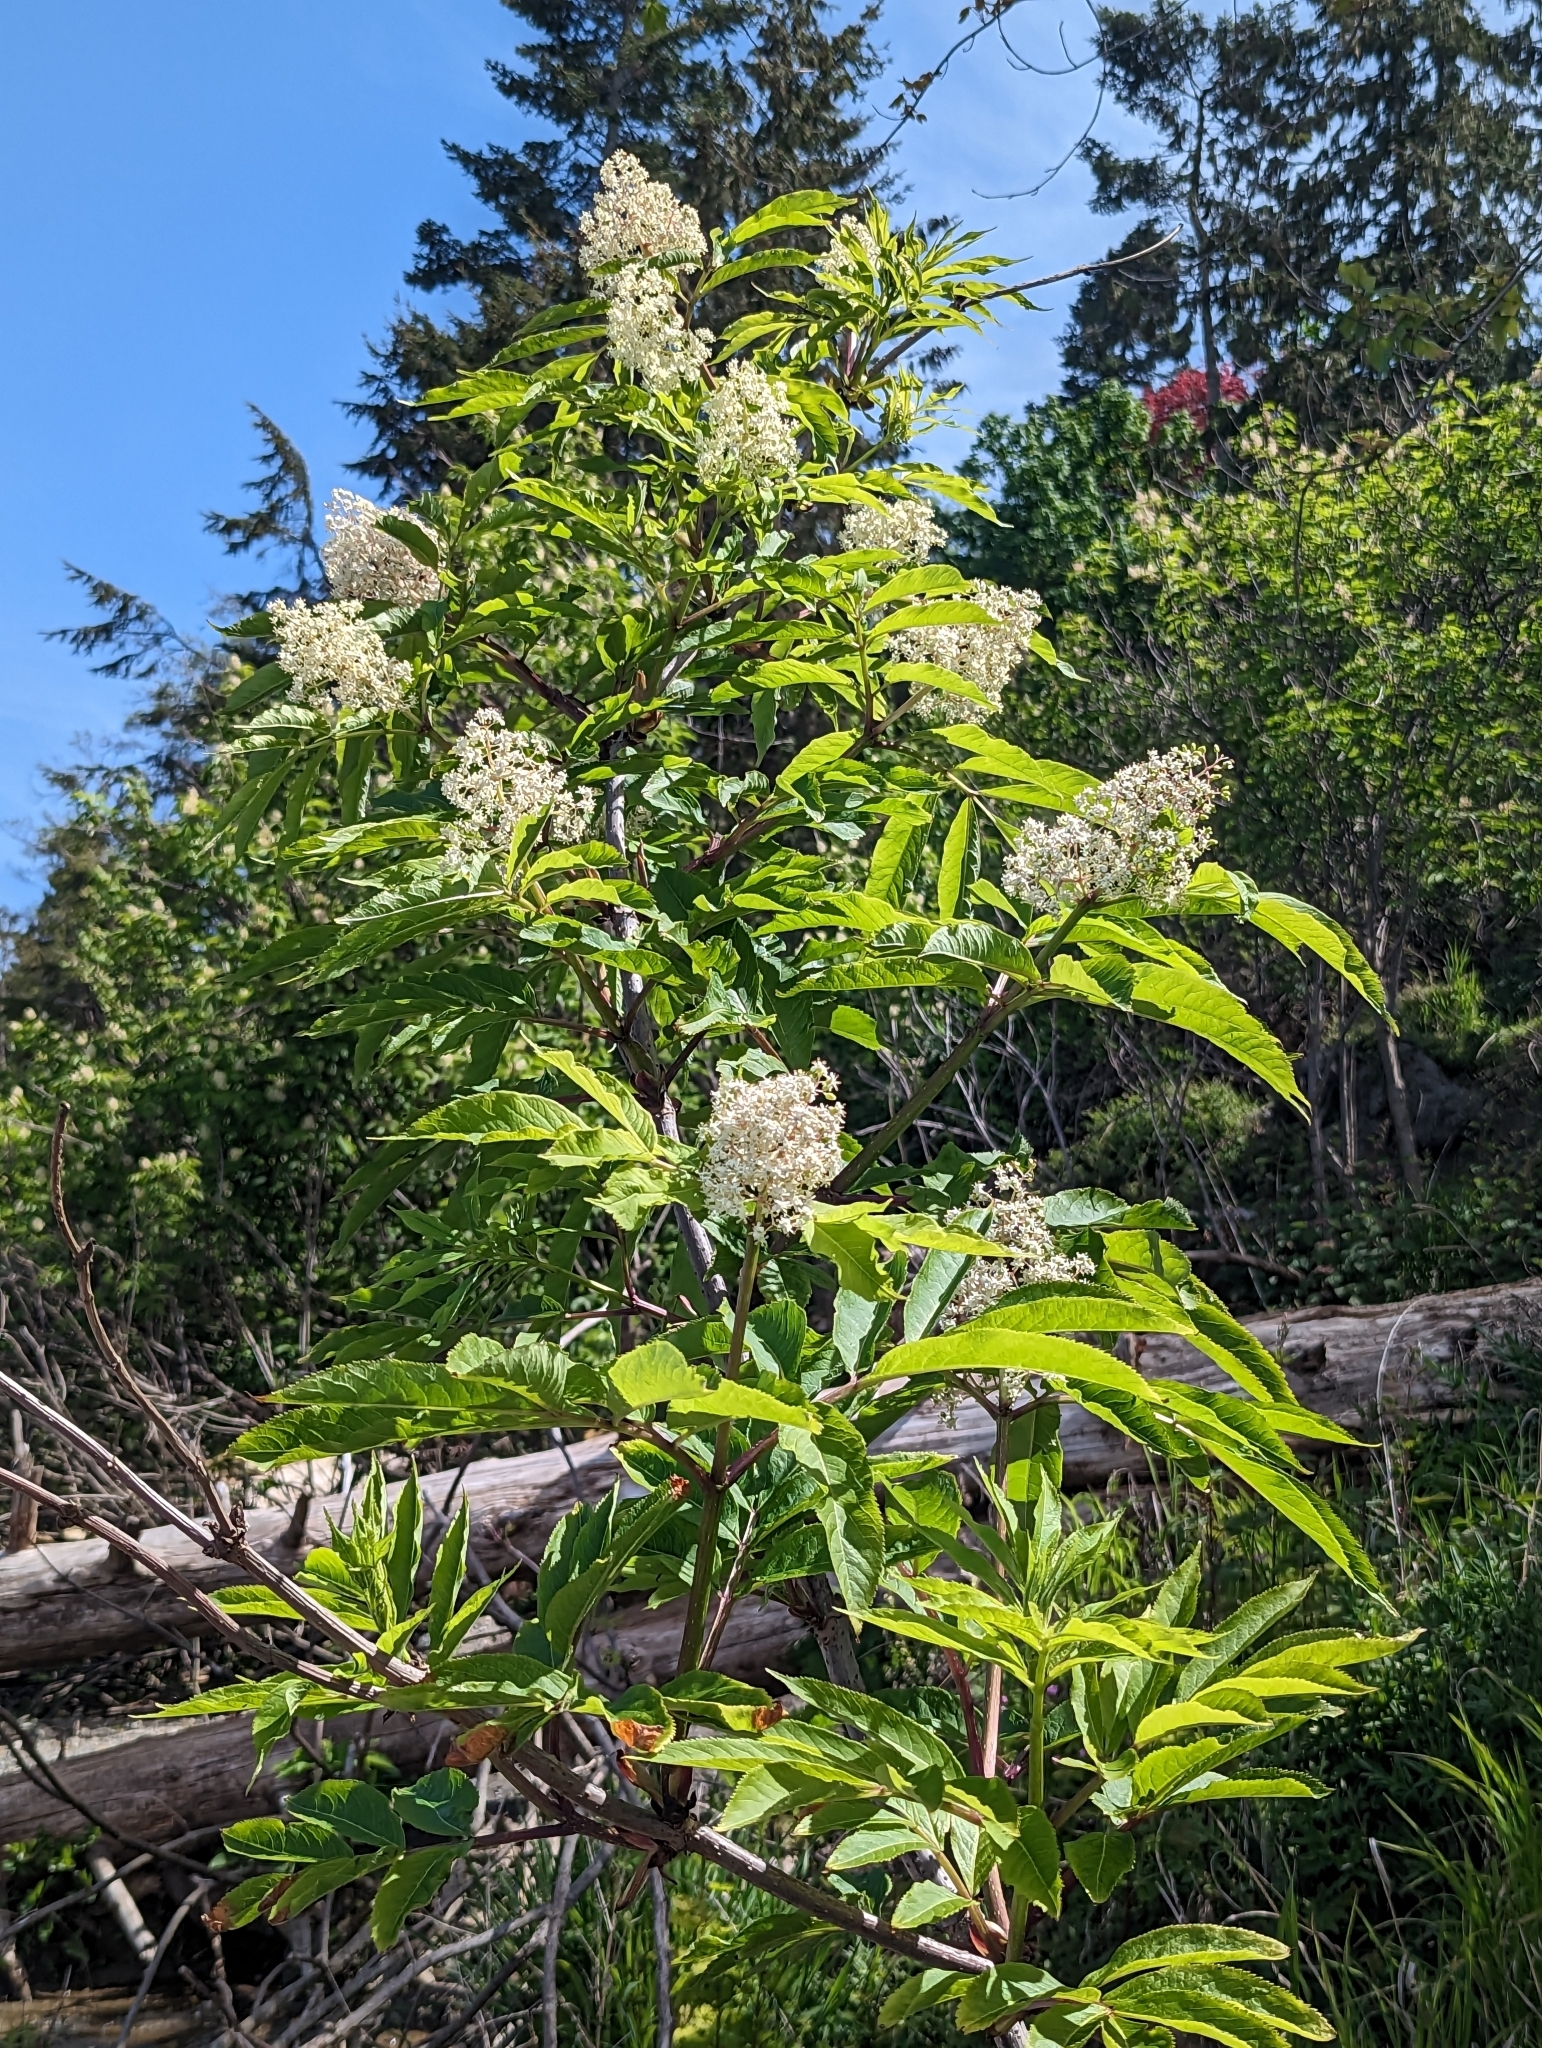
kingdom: Plantae
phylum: Tracheophyta
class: Magnoliopsida
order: Dipsacales
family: Viburnaceae
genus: Sambucus
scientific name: Sambucus racemosa
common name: Red-berried elder
